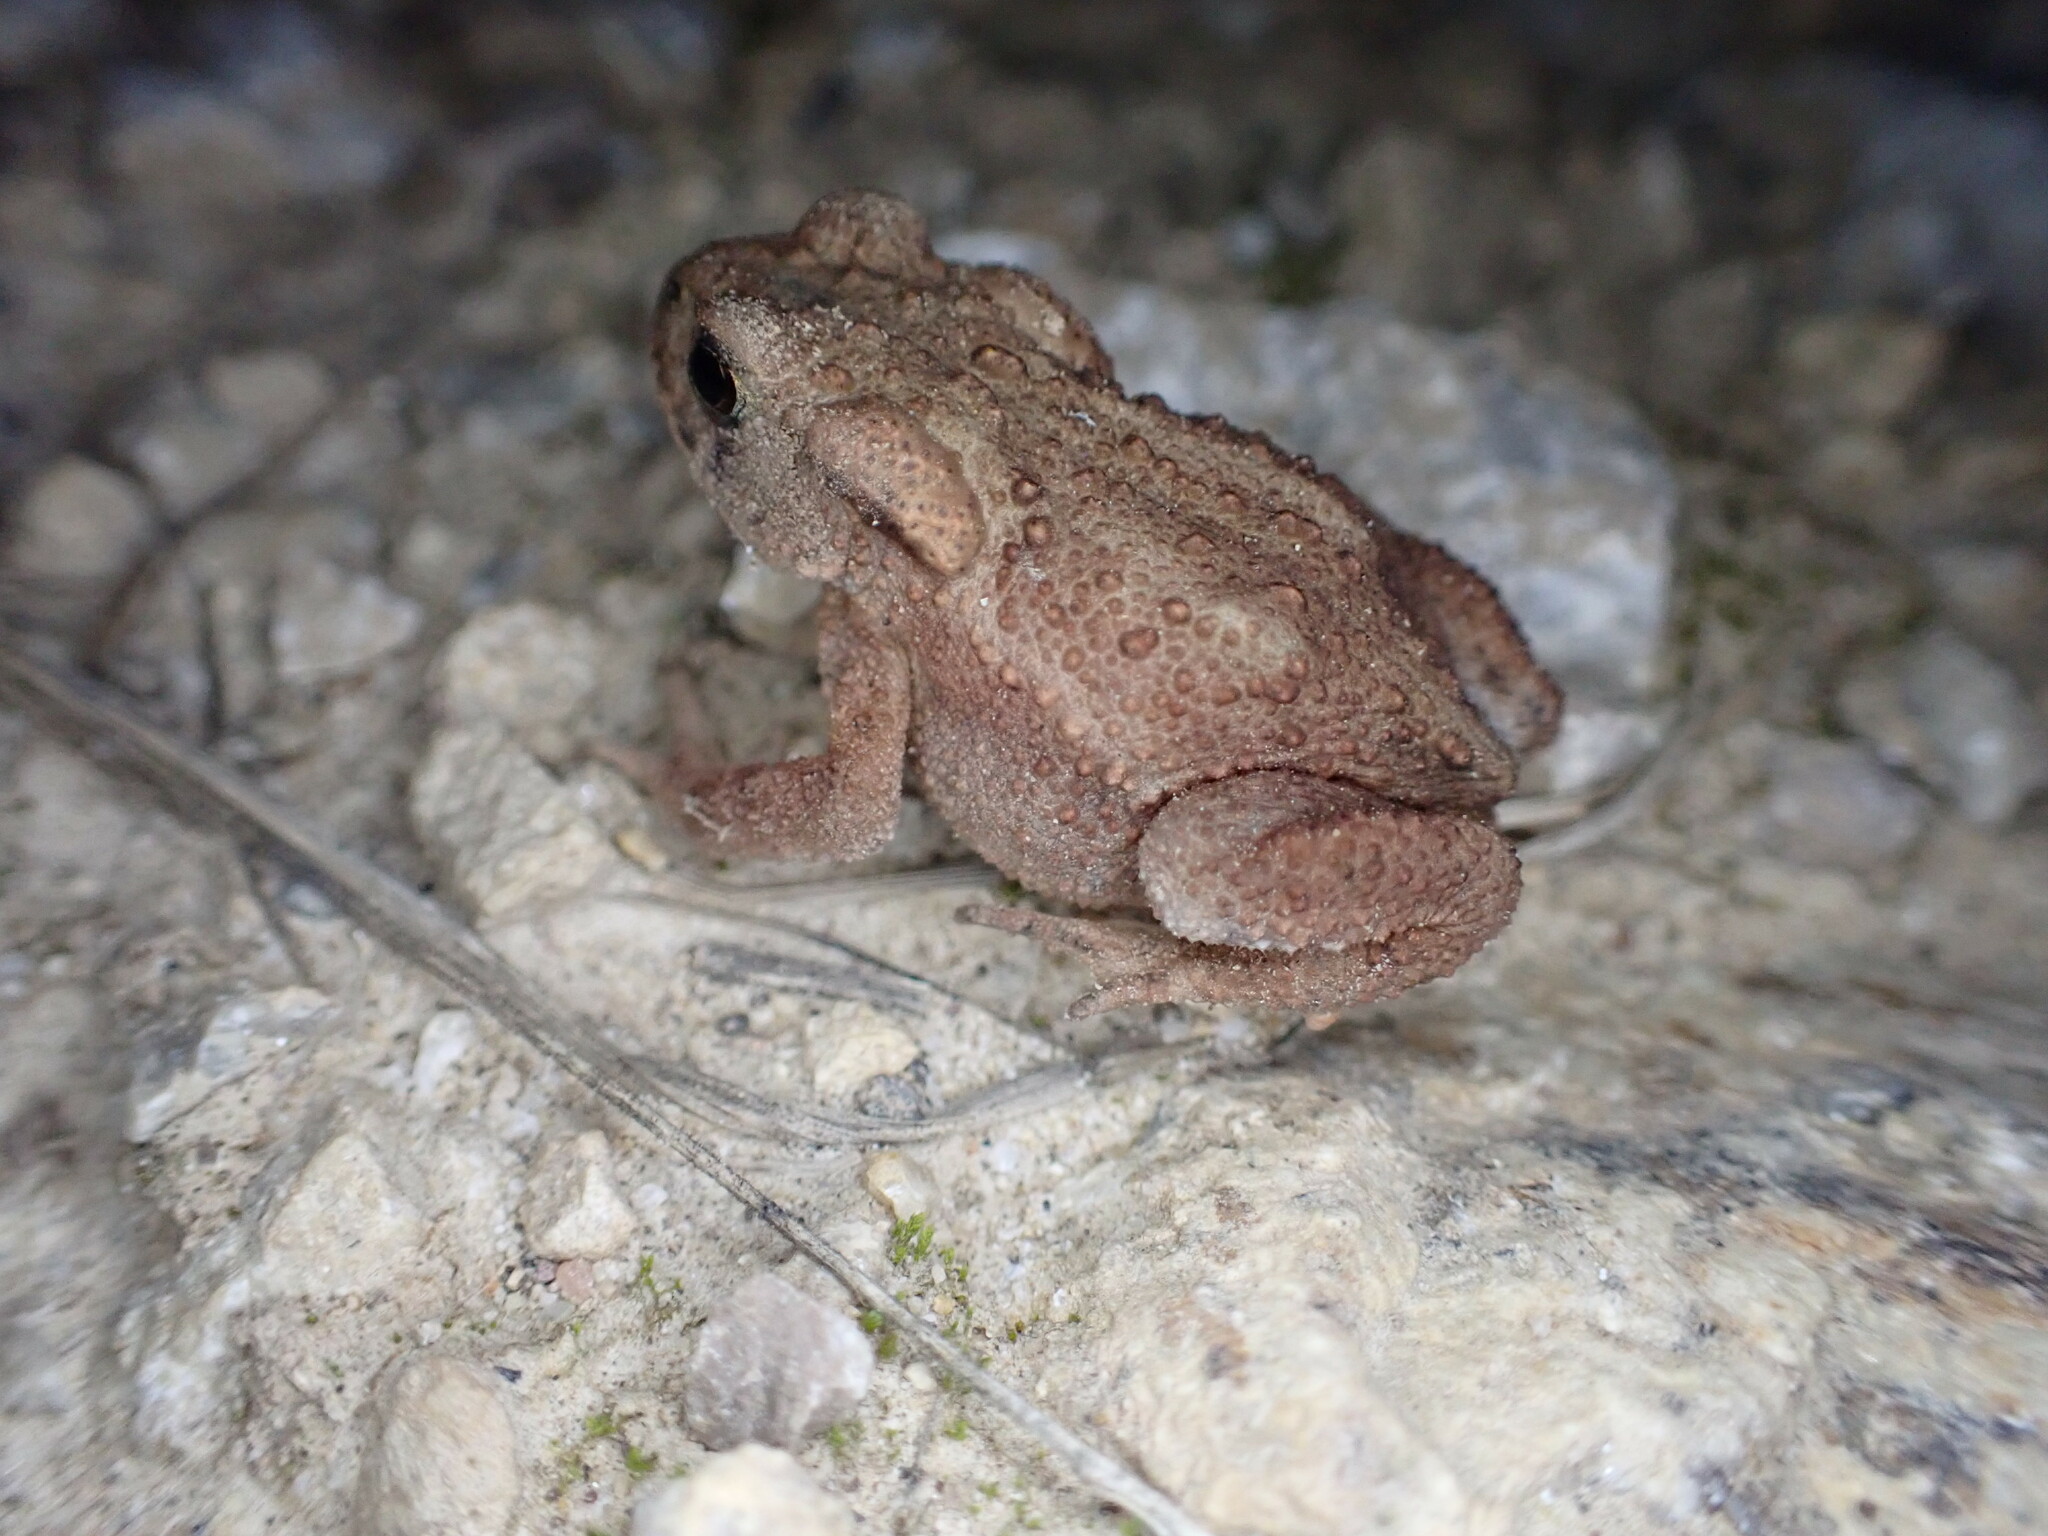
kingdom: Animalia
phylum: Chordata
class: Amphibia
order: Anura
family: Bufonidae
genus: Bufo
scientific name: Bufo bufo
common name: Common toad
